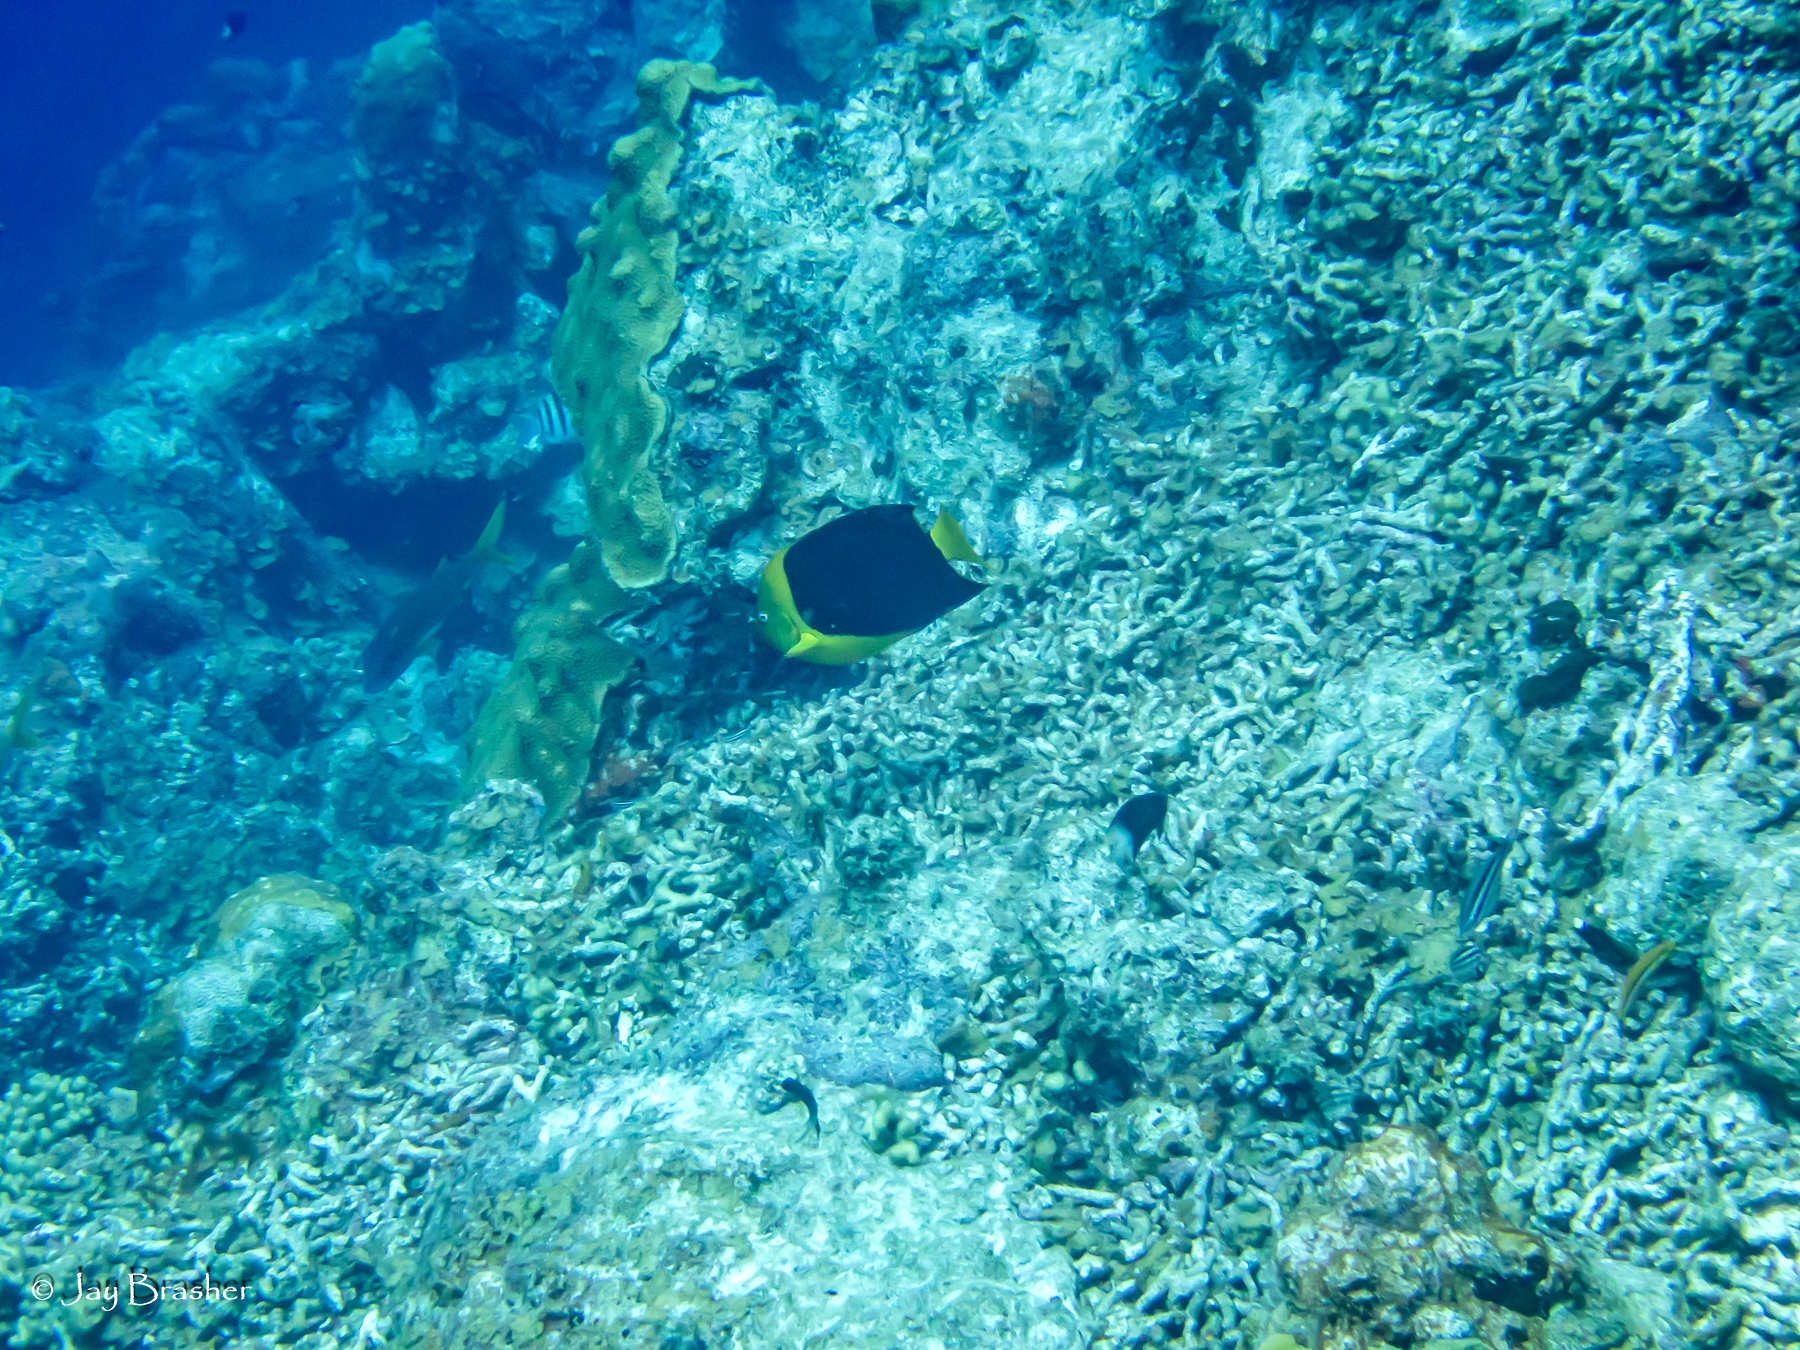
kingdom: Animalia
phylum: Chordata
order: Perciformes
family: Pomacanthidae
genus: Holacanthus
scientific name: Holacanthus tricolor
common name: Rock beauty
